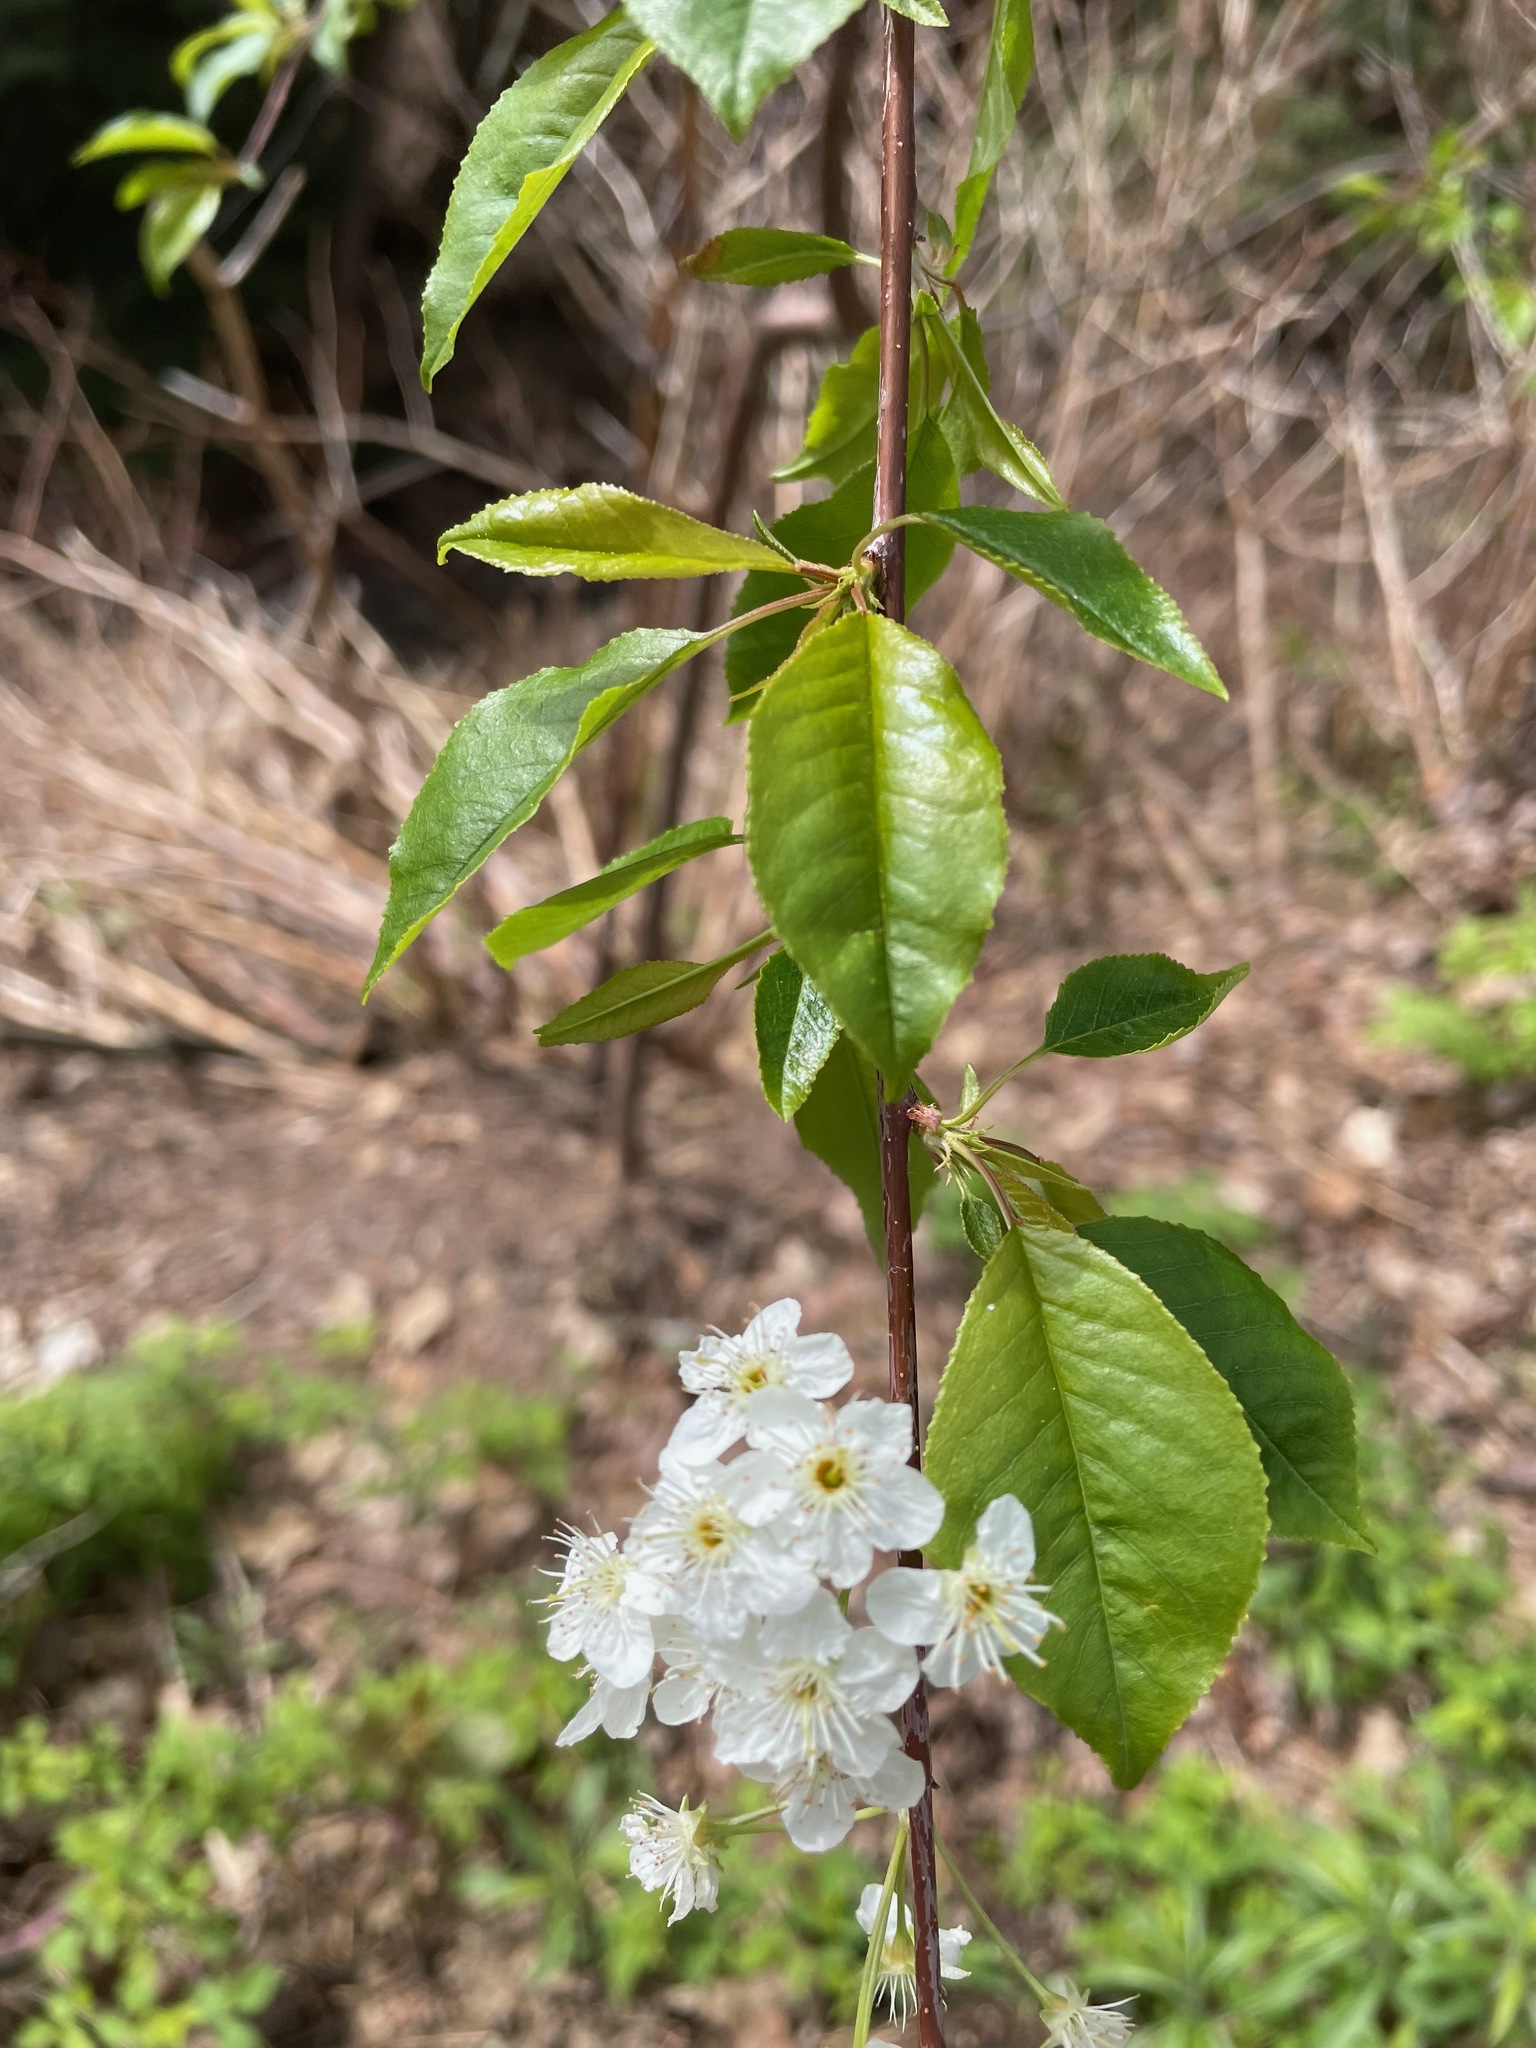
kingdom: Plantae
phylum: Tracheophyta
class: Magnoliopsida
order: Rosales
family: Rosaceae
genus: Prunus
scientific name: Prunus pensylvanica
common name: Pin cherry
